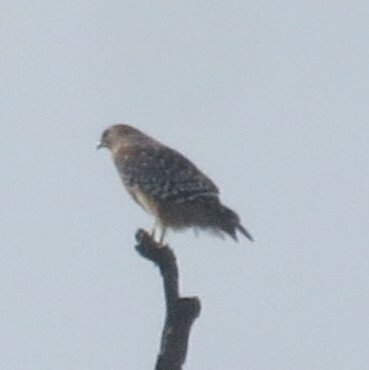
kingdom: Animalia
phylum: Chordata
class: Aves
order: Accipitriformes
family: Accipitridae
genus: Buteo
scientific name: Buteo lineatus
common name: Red-shouldered hawk
